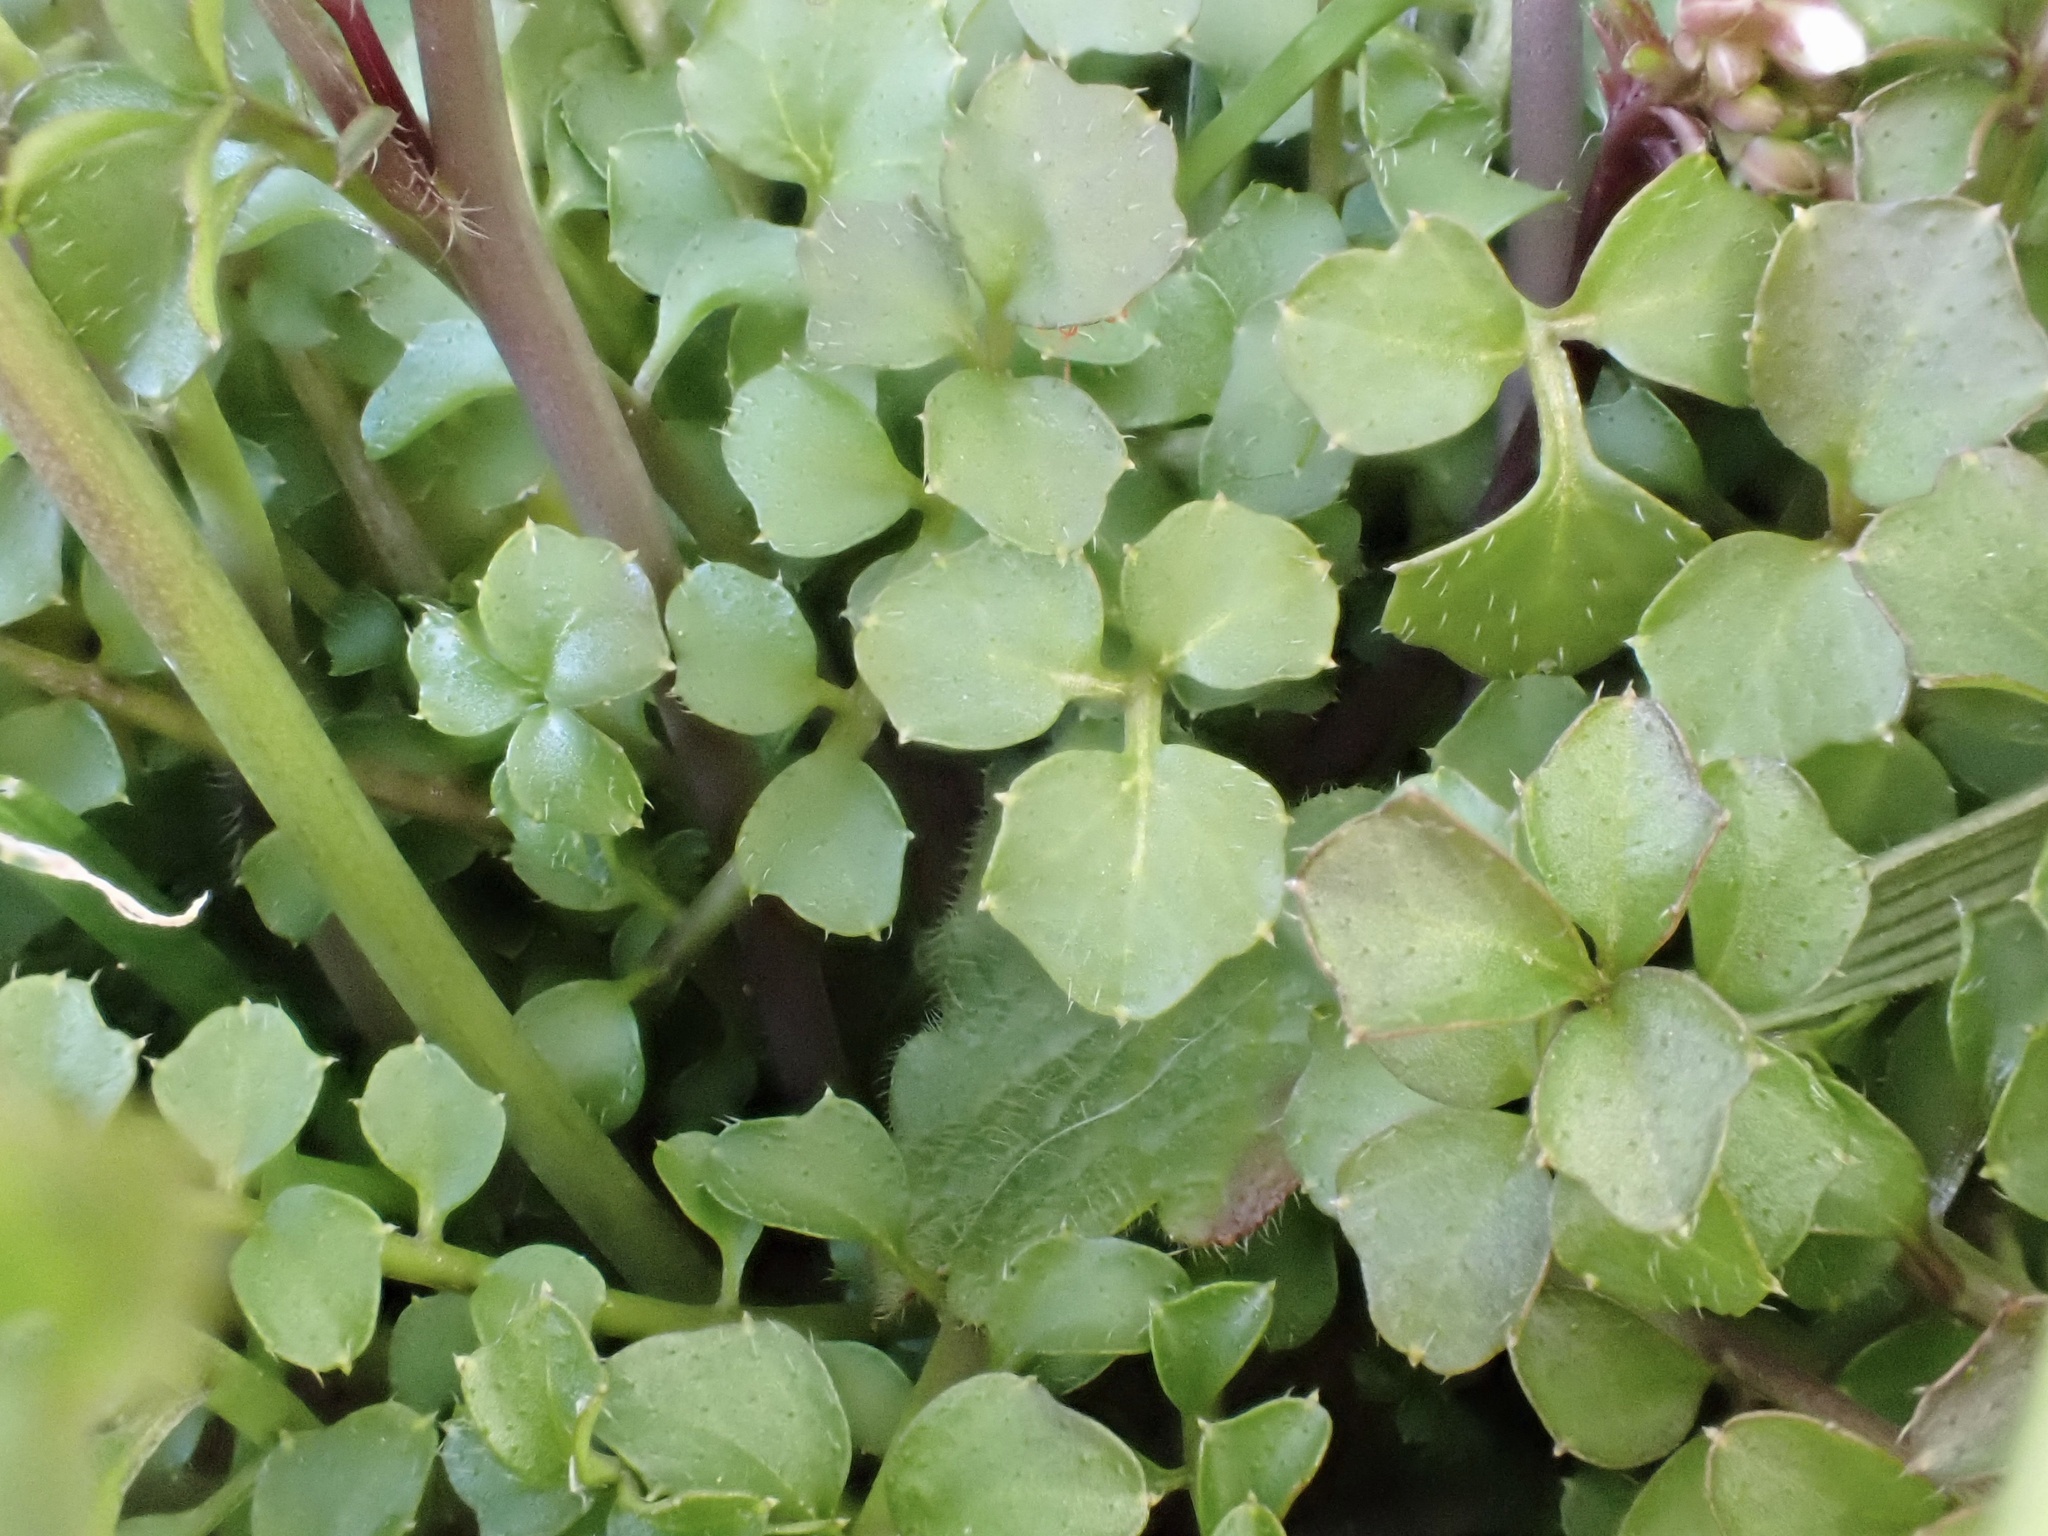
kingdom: Plantae
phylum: Tracheophyta
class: Magnoliopsida
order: Brassicales
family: Brassicaceae
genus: Cardamine
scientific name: Cardamine hirsuta
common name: Hairy bittercress
